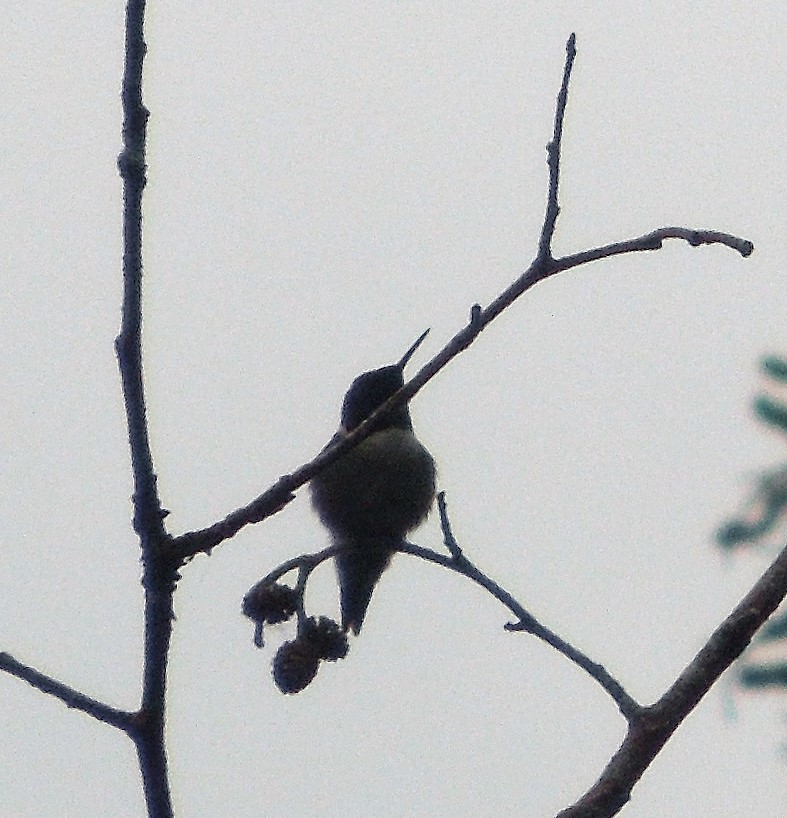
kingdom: Animalia
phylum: Chordata
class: Aves
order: Apodiformes
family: Trochilidae
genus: Archilochus
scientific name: Archilochus colubris
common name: Ruby-throated hummingbird
